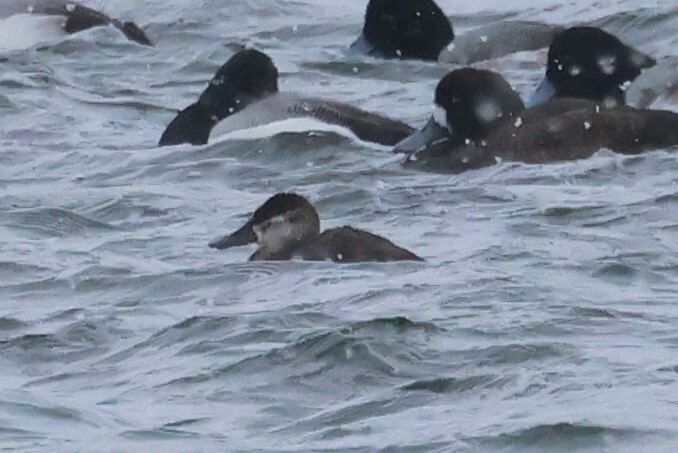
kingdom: Animalia
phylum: Chordata
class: Aves
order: Anseriformes
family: Anatidae
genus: Oxyura
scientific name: Oxyura jamaicensis
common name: Ruddy duck
